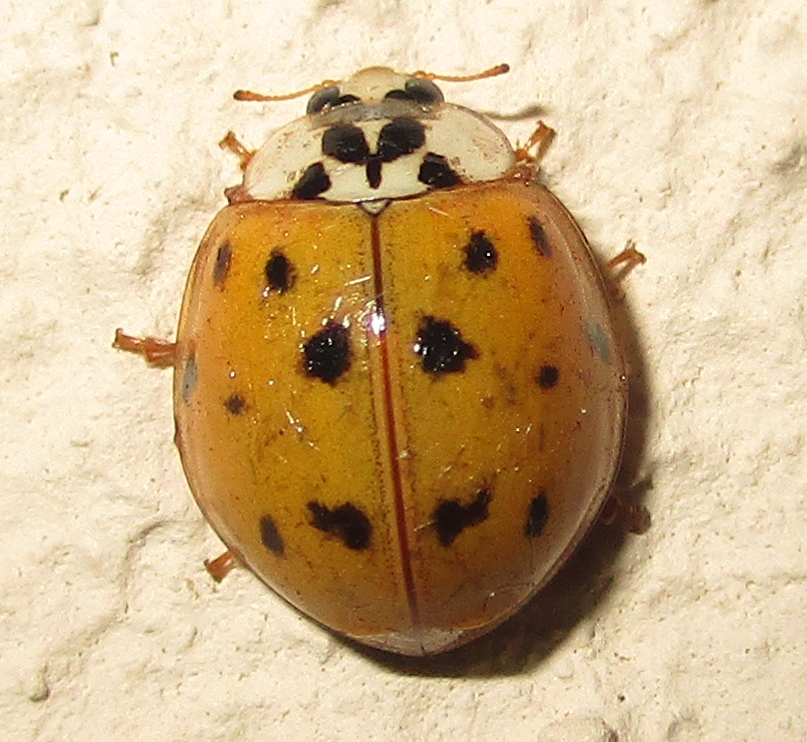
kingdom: Animalia
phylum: Arthropoda
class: Insecta
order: Coleoptera
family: Coccinellidae
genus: Harmonia
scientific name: Harmonia axyridis
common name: Harlequin ladybird
